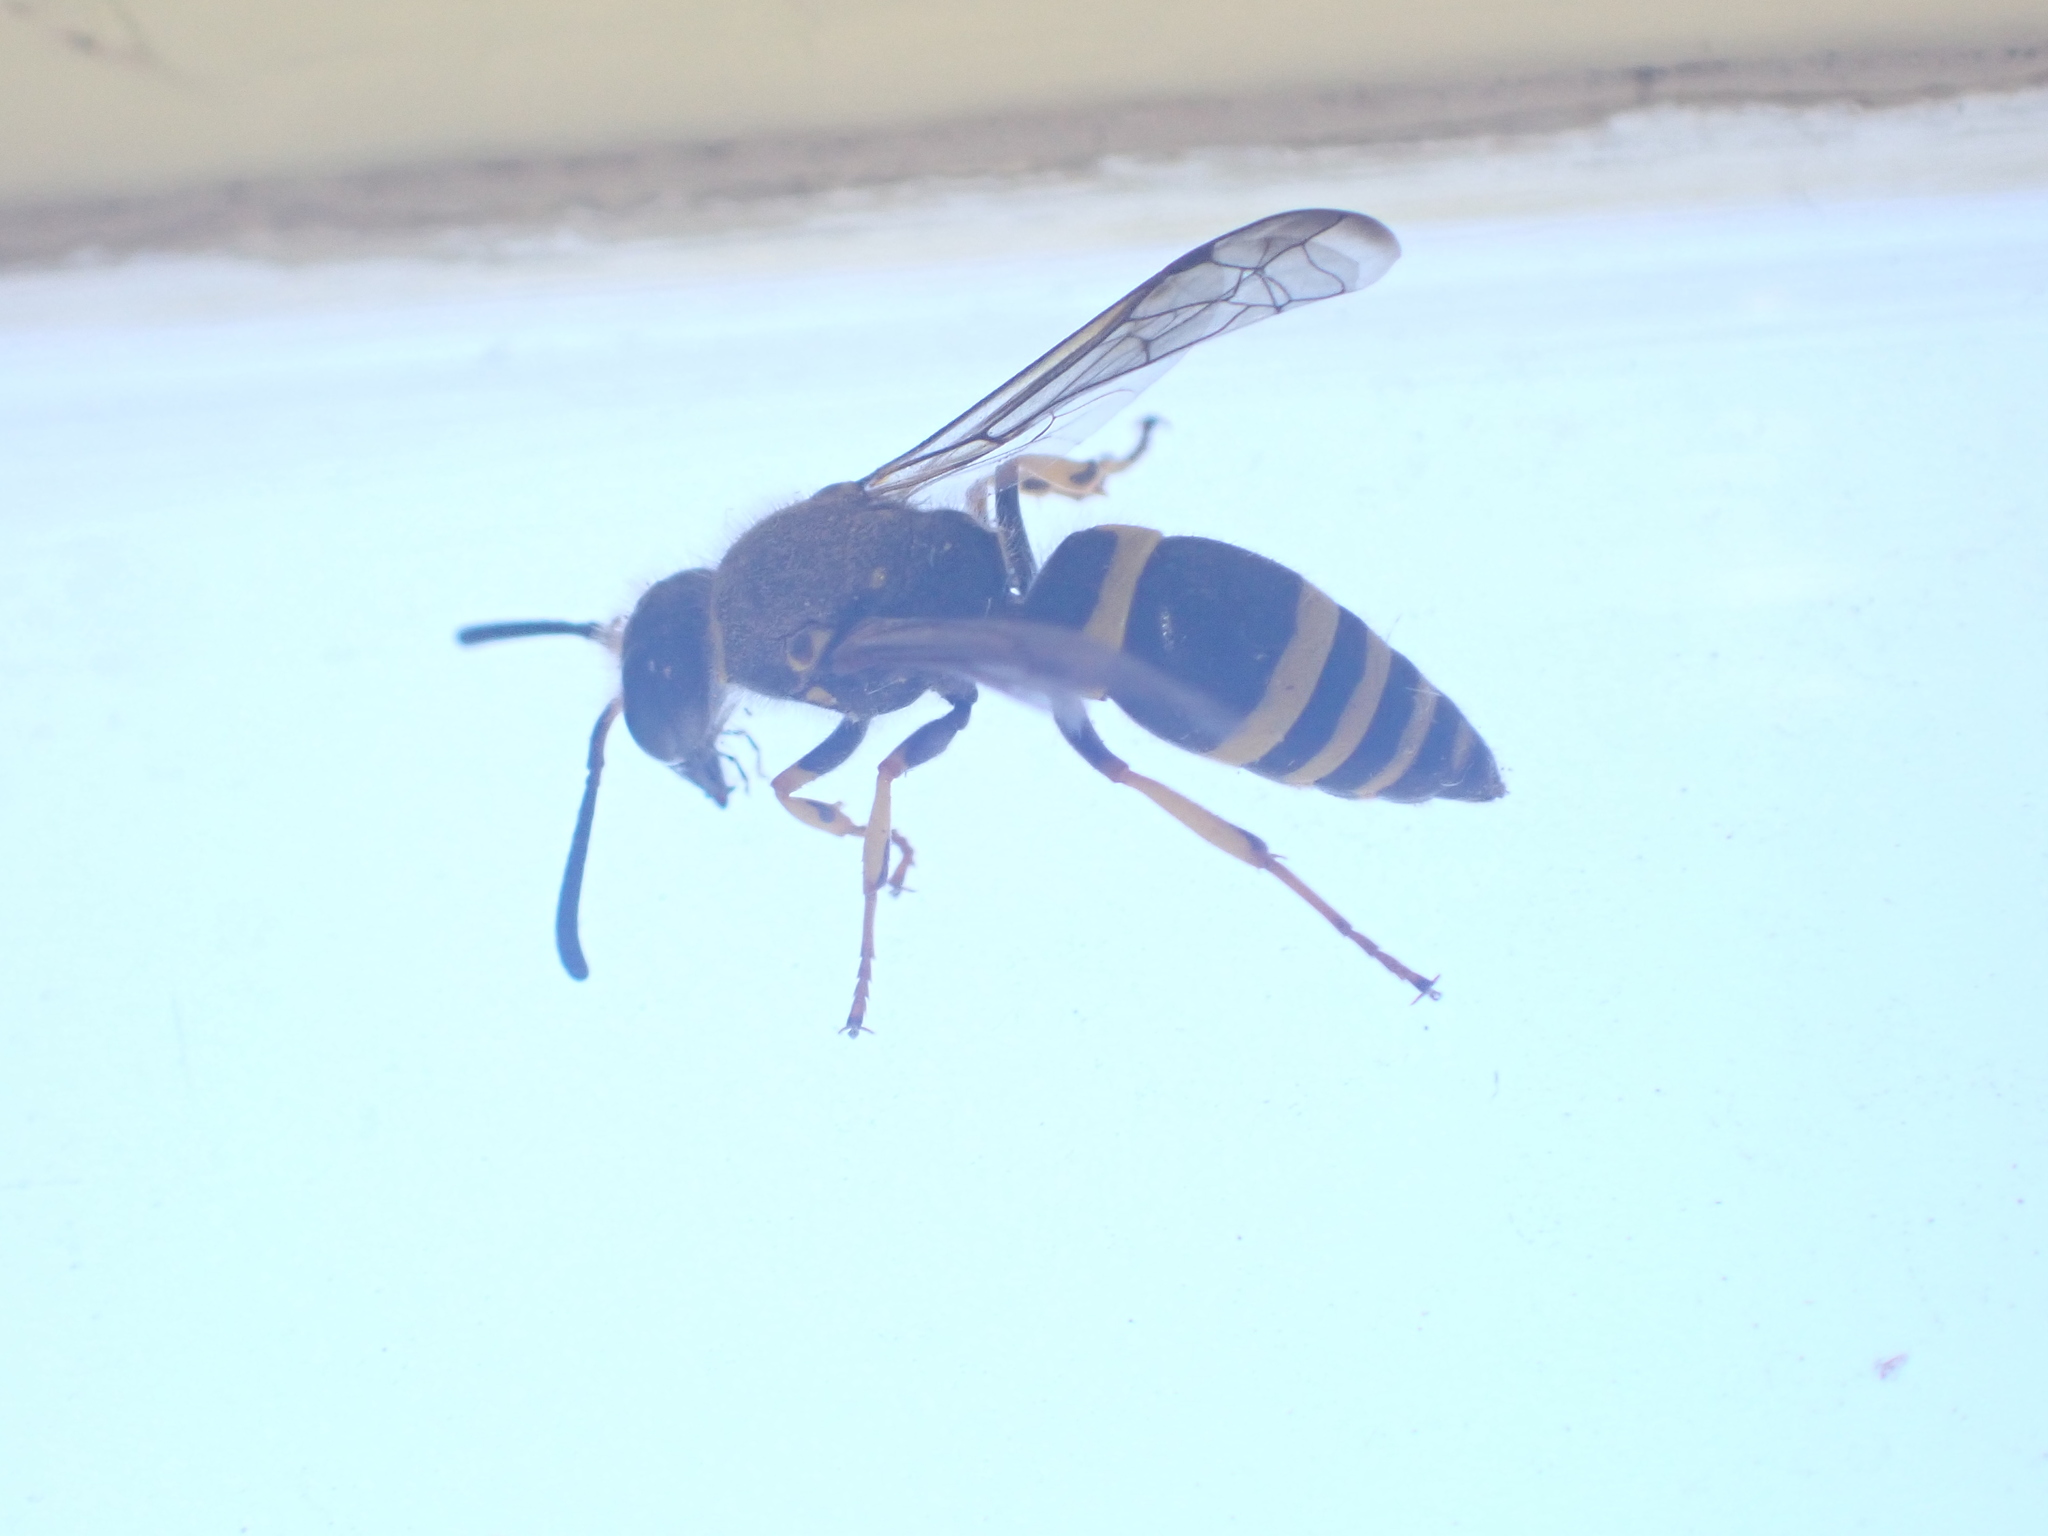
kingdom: Animalia
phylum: Arthropoda
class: Insecta
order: Hymenoptera
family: Vespidae
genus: Ancistrocerus
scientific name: Ancistrocerus gazella
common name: European tube wasp
